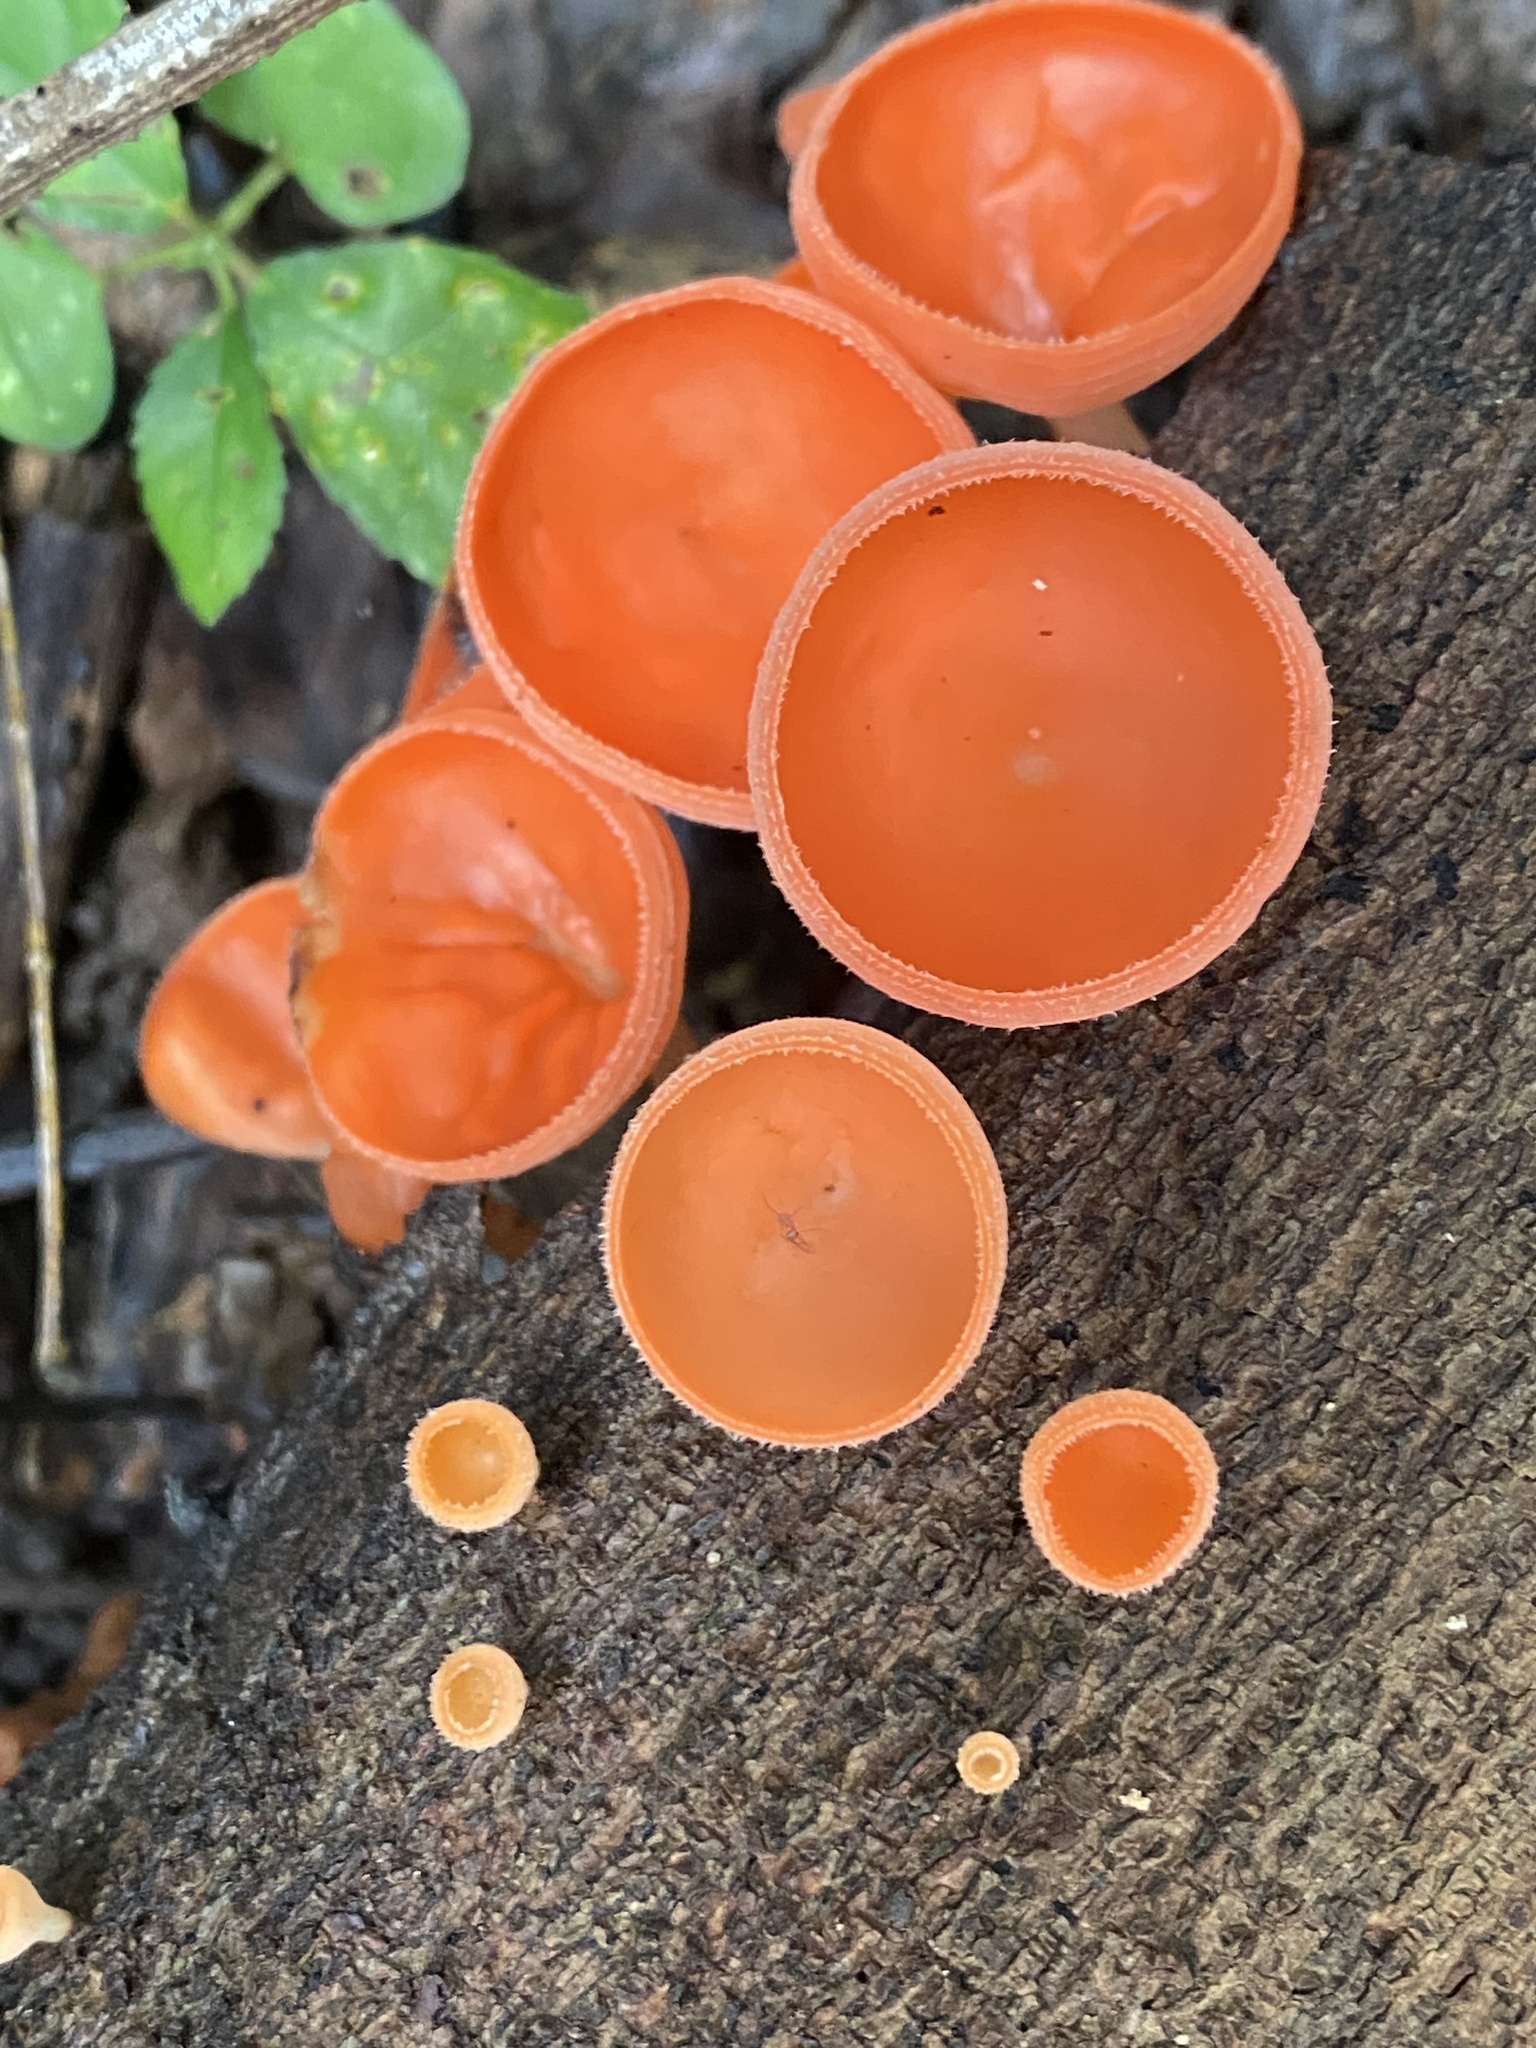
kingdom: Fungi
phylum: Ascomycota
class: Pezizomycetes
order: Pezizales
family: Sarcoscyphaceae
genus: Cookeina
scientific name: Cookeina speciosa
